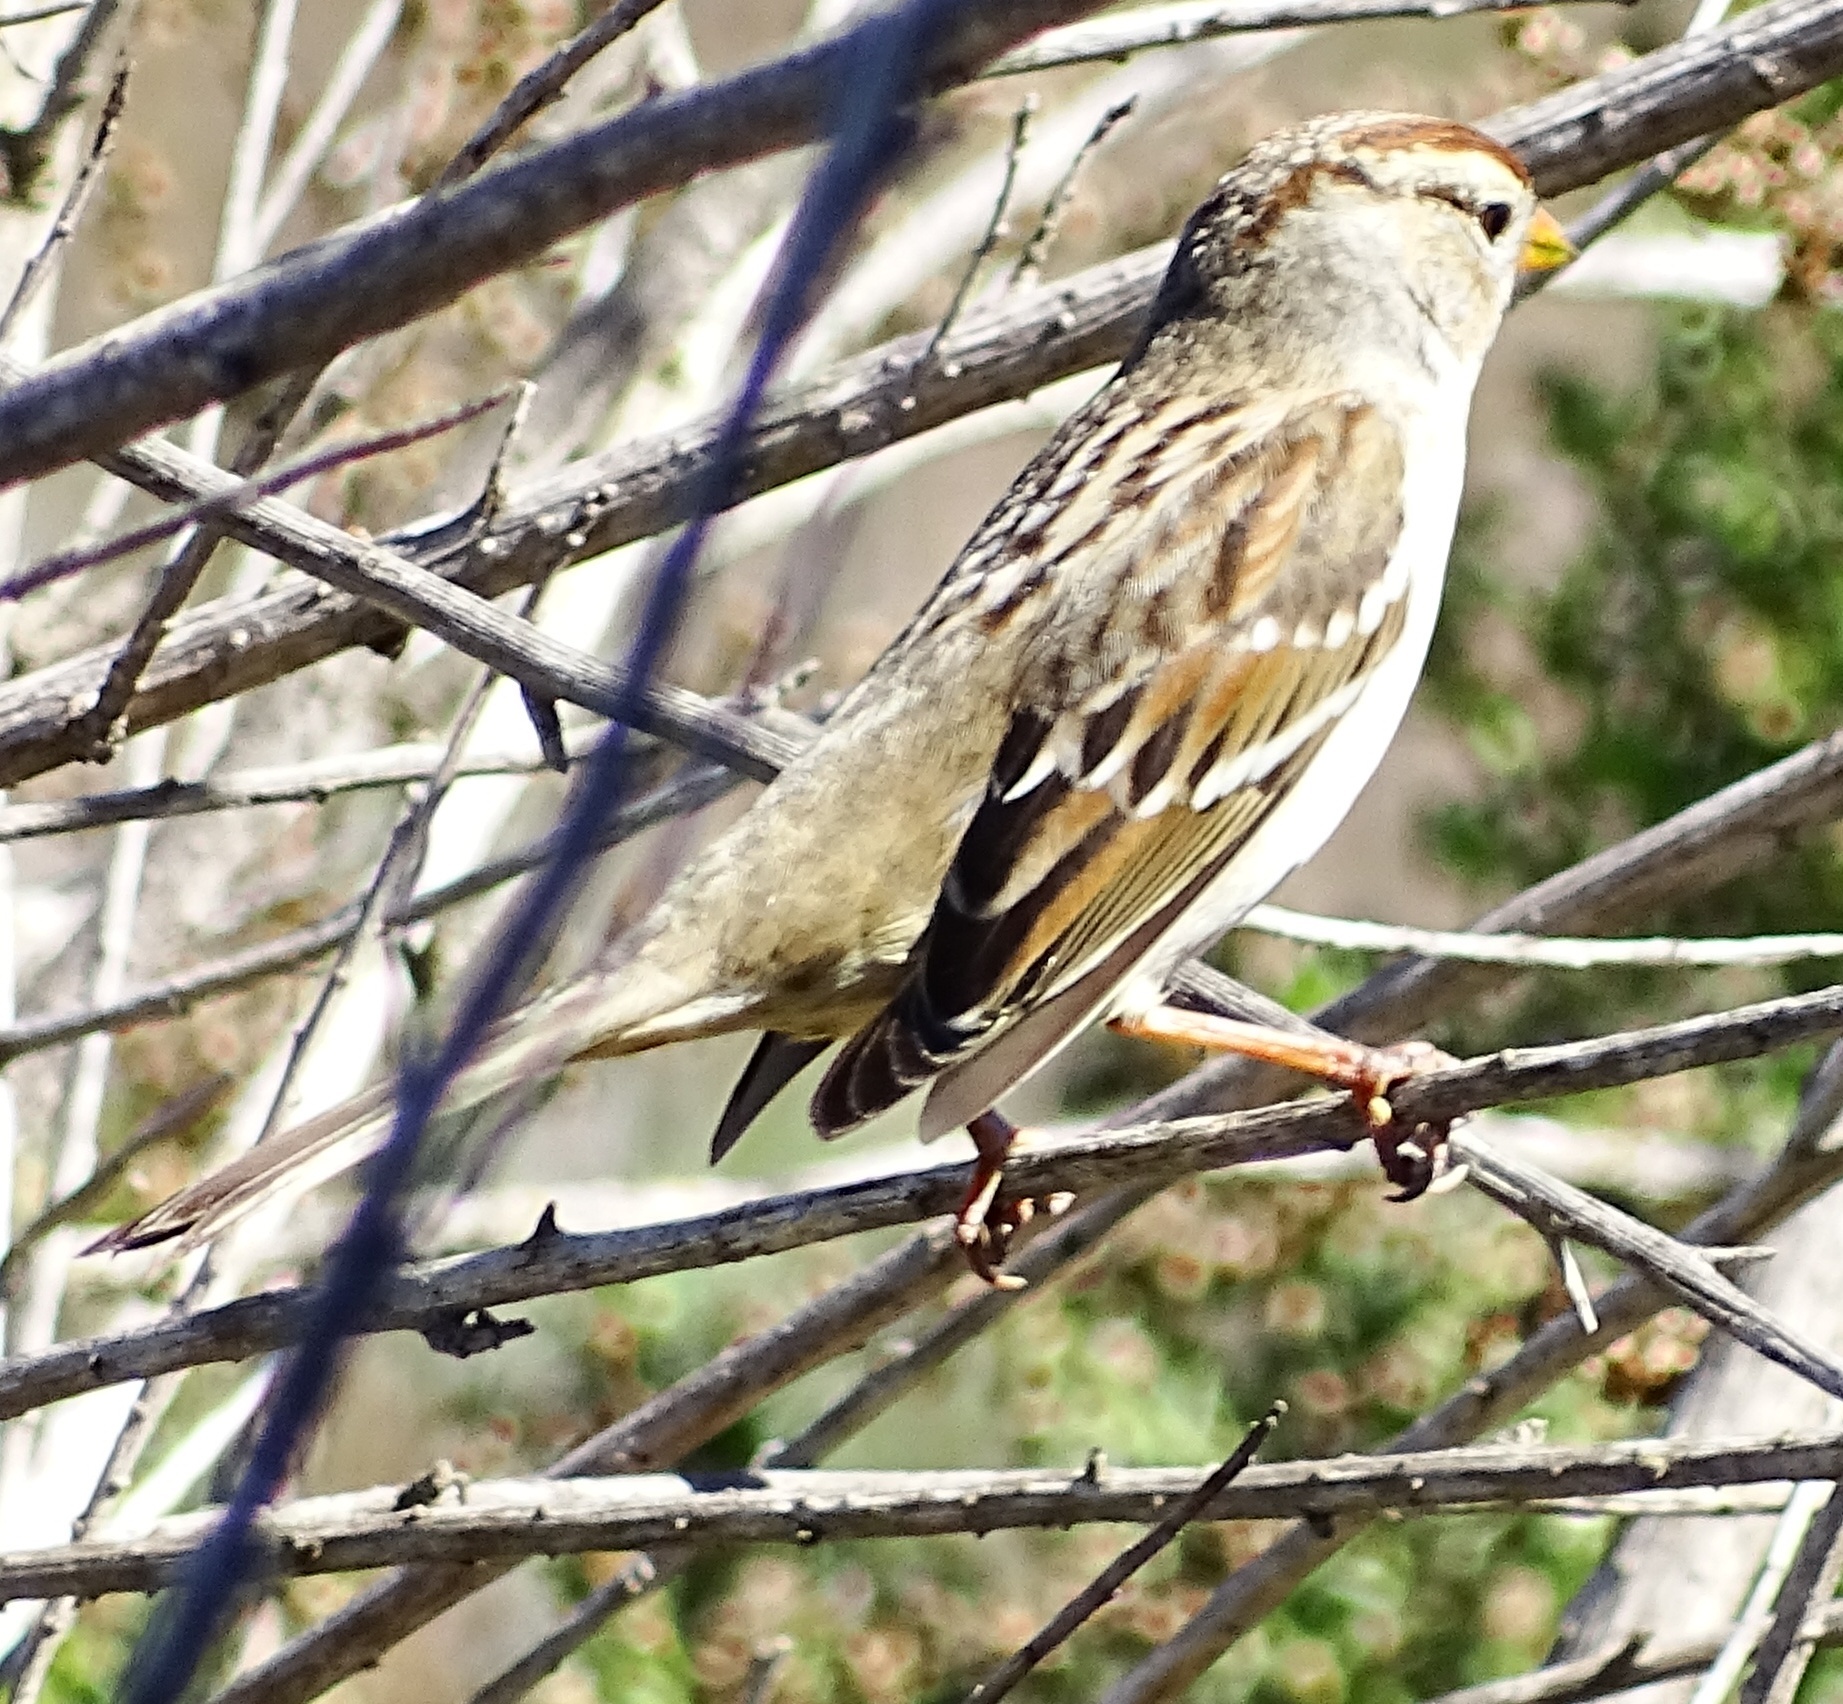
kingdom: Animalia
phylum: Chordata
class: Aves
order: Passeriformes
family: Passerellidae
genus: Zonotrichia
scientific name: Zonotrichia leucophrys
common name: White-crowned sparrow
